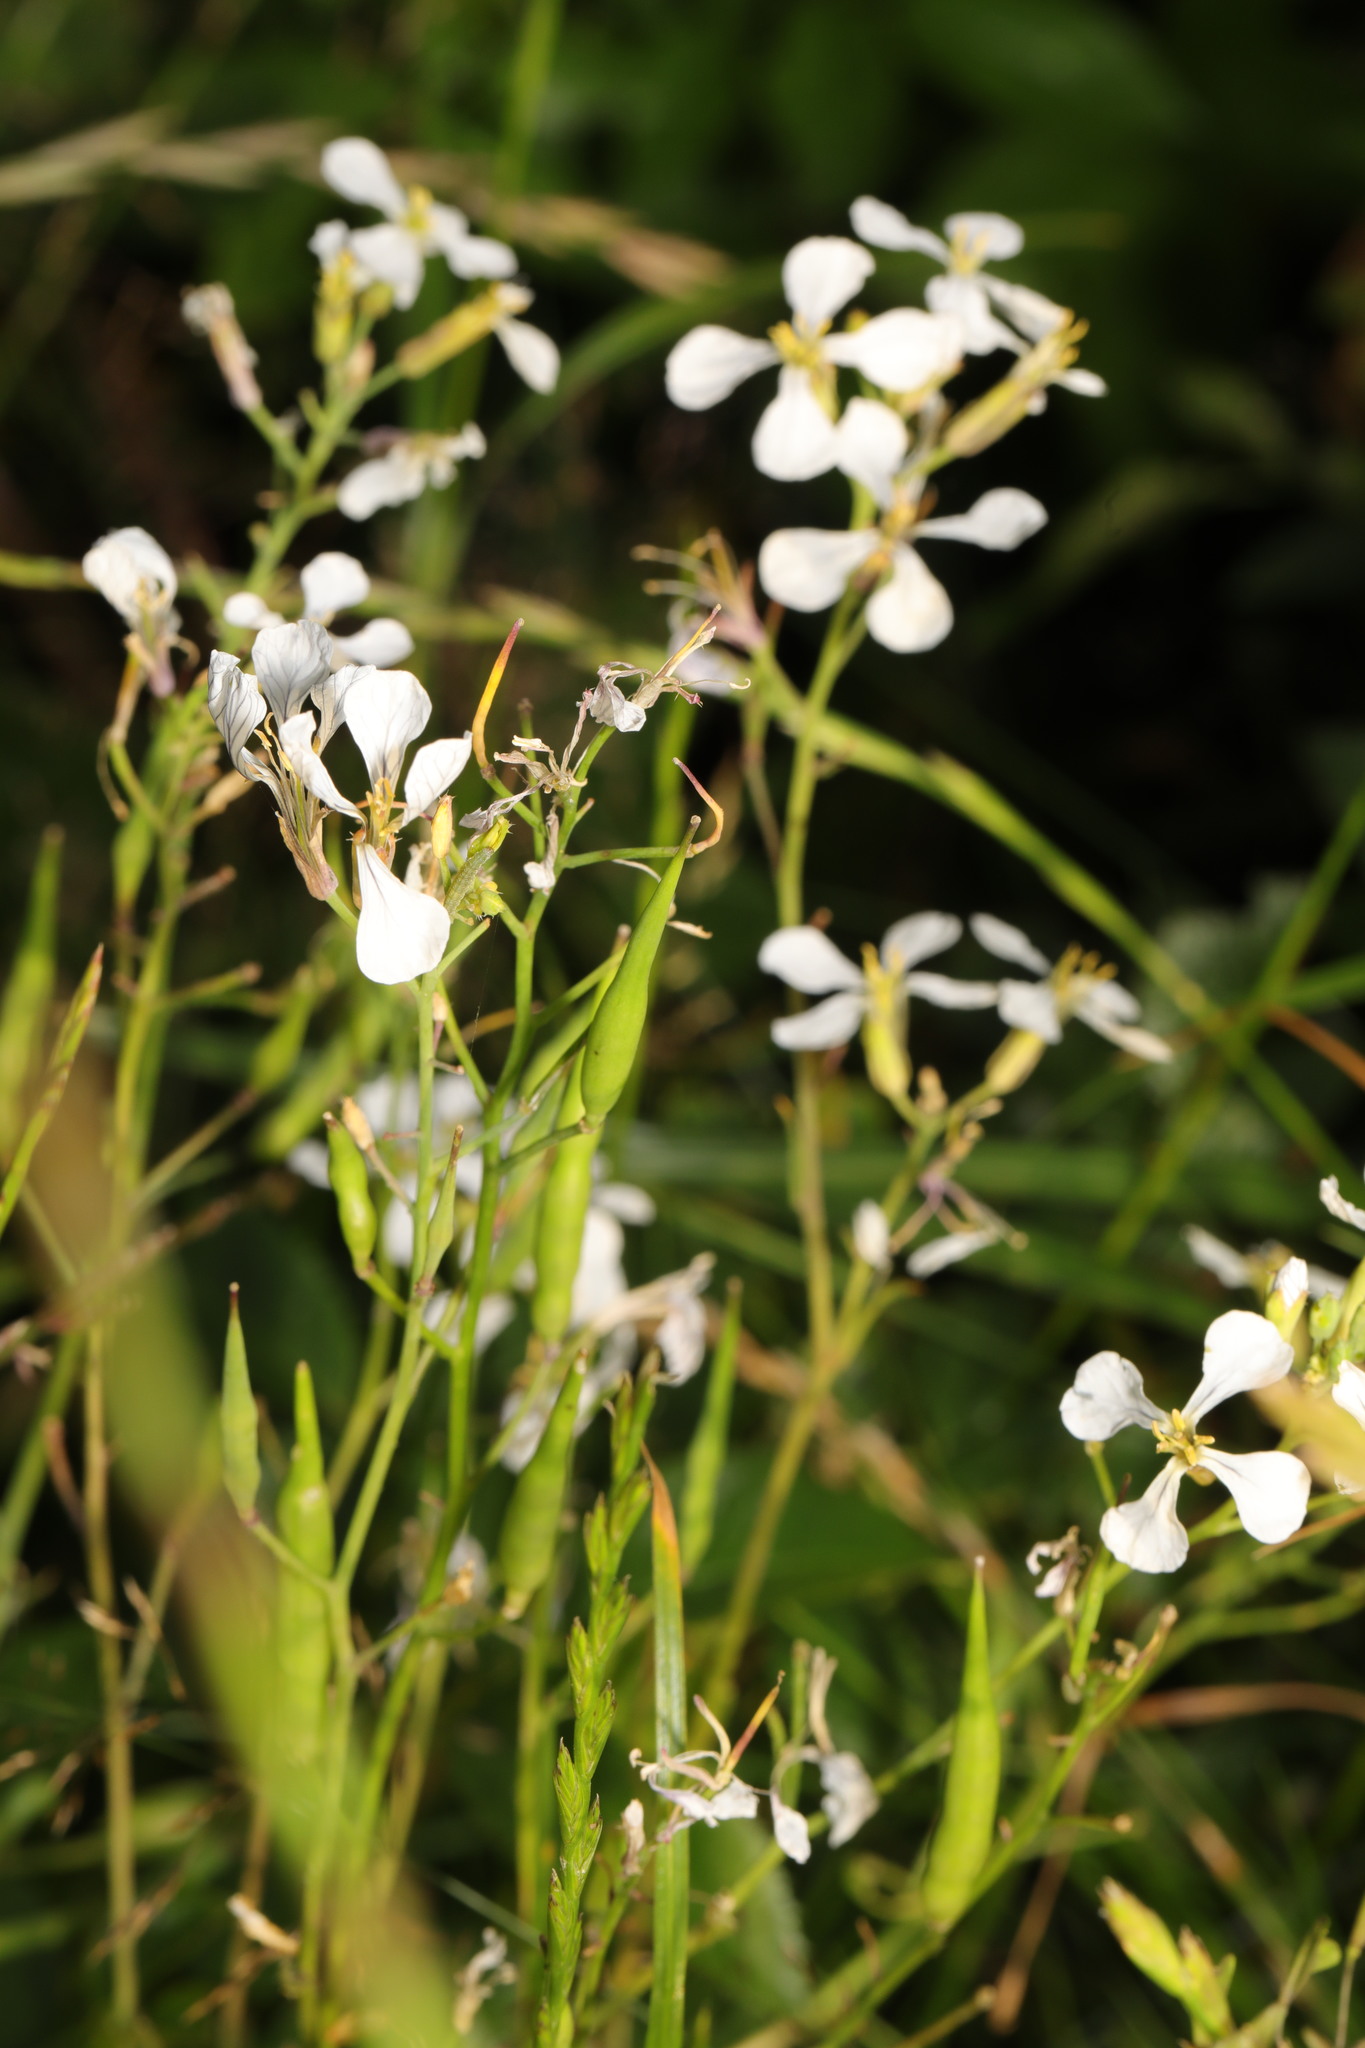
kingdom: Plantae
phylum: Tracheophyta
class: Magnoliopsida
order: Brassicales
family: Brassicaceae
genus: Raphanus
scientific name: Raphanus raphanistrum
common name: Wild radish
